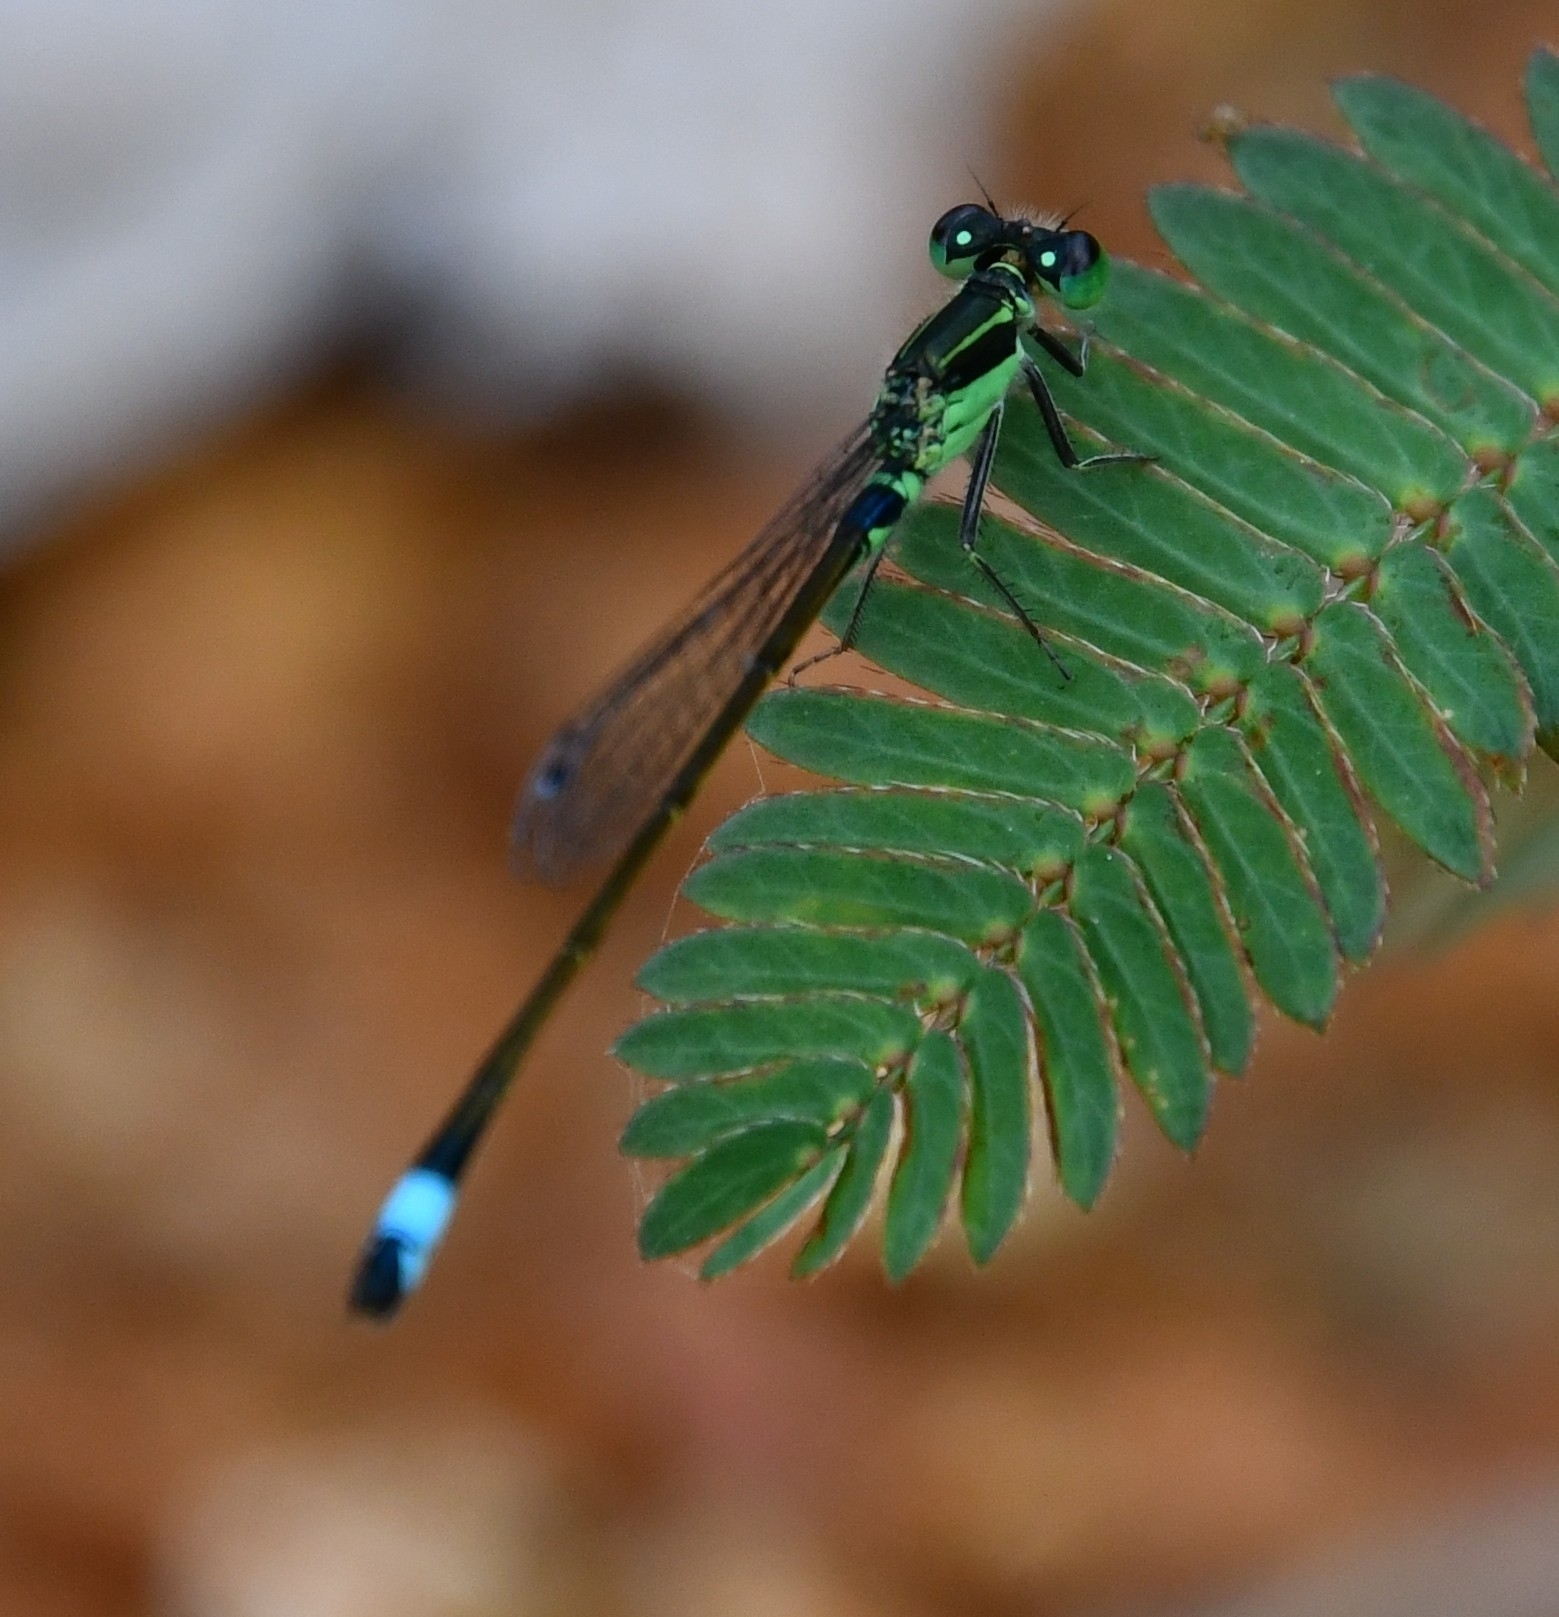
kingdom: Animalia
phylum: Arthropoda
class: Insecta
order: Odonata
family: Coenagrionidae
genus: Ischnura
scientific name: Ischnura senegalensis
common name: Tropical bluetail
